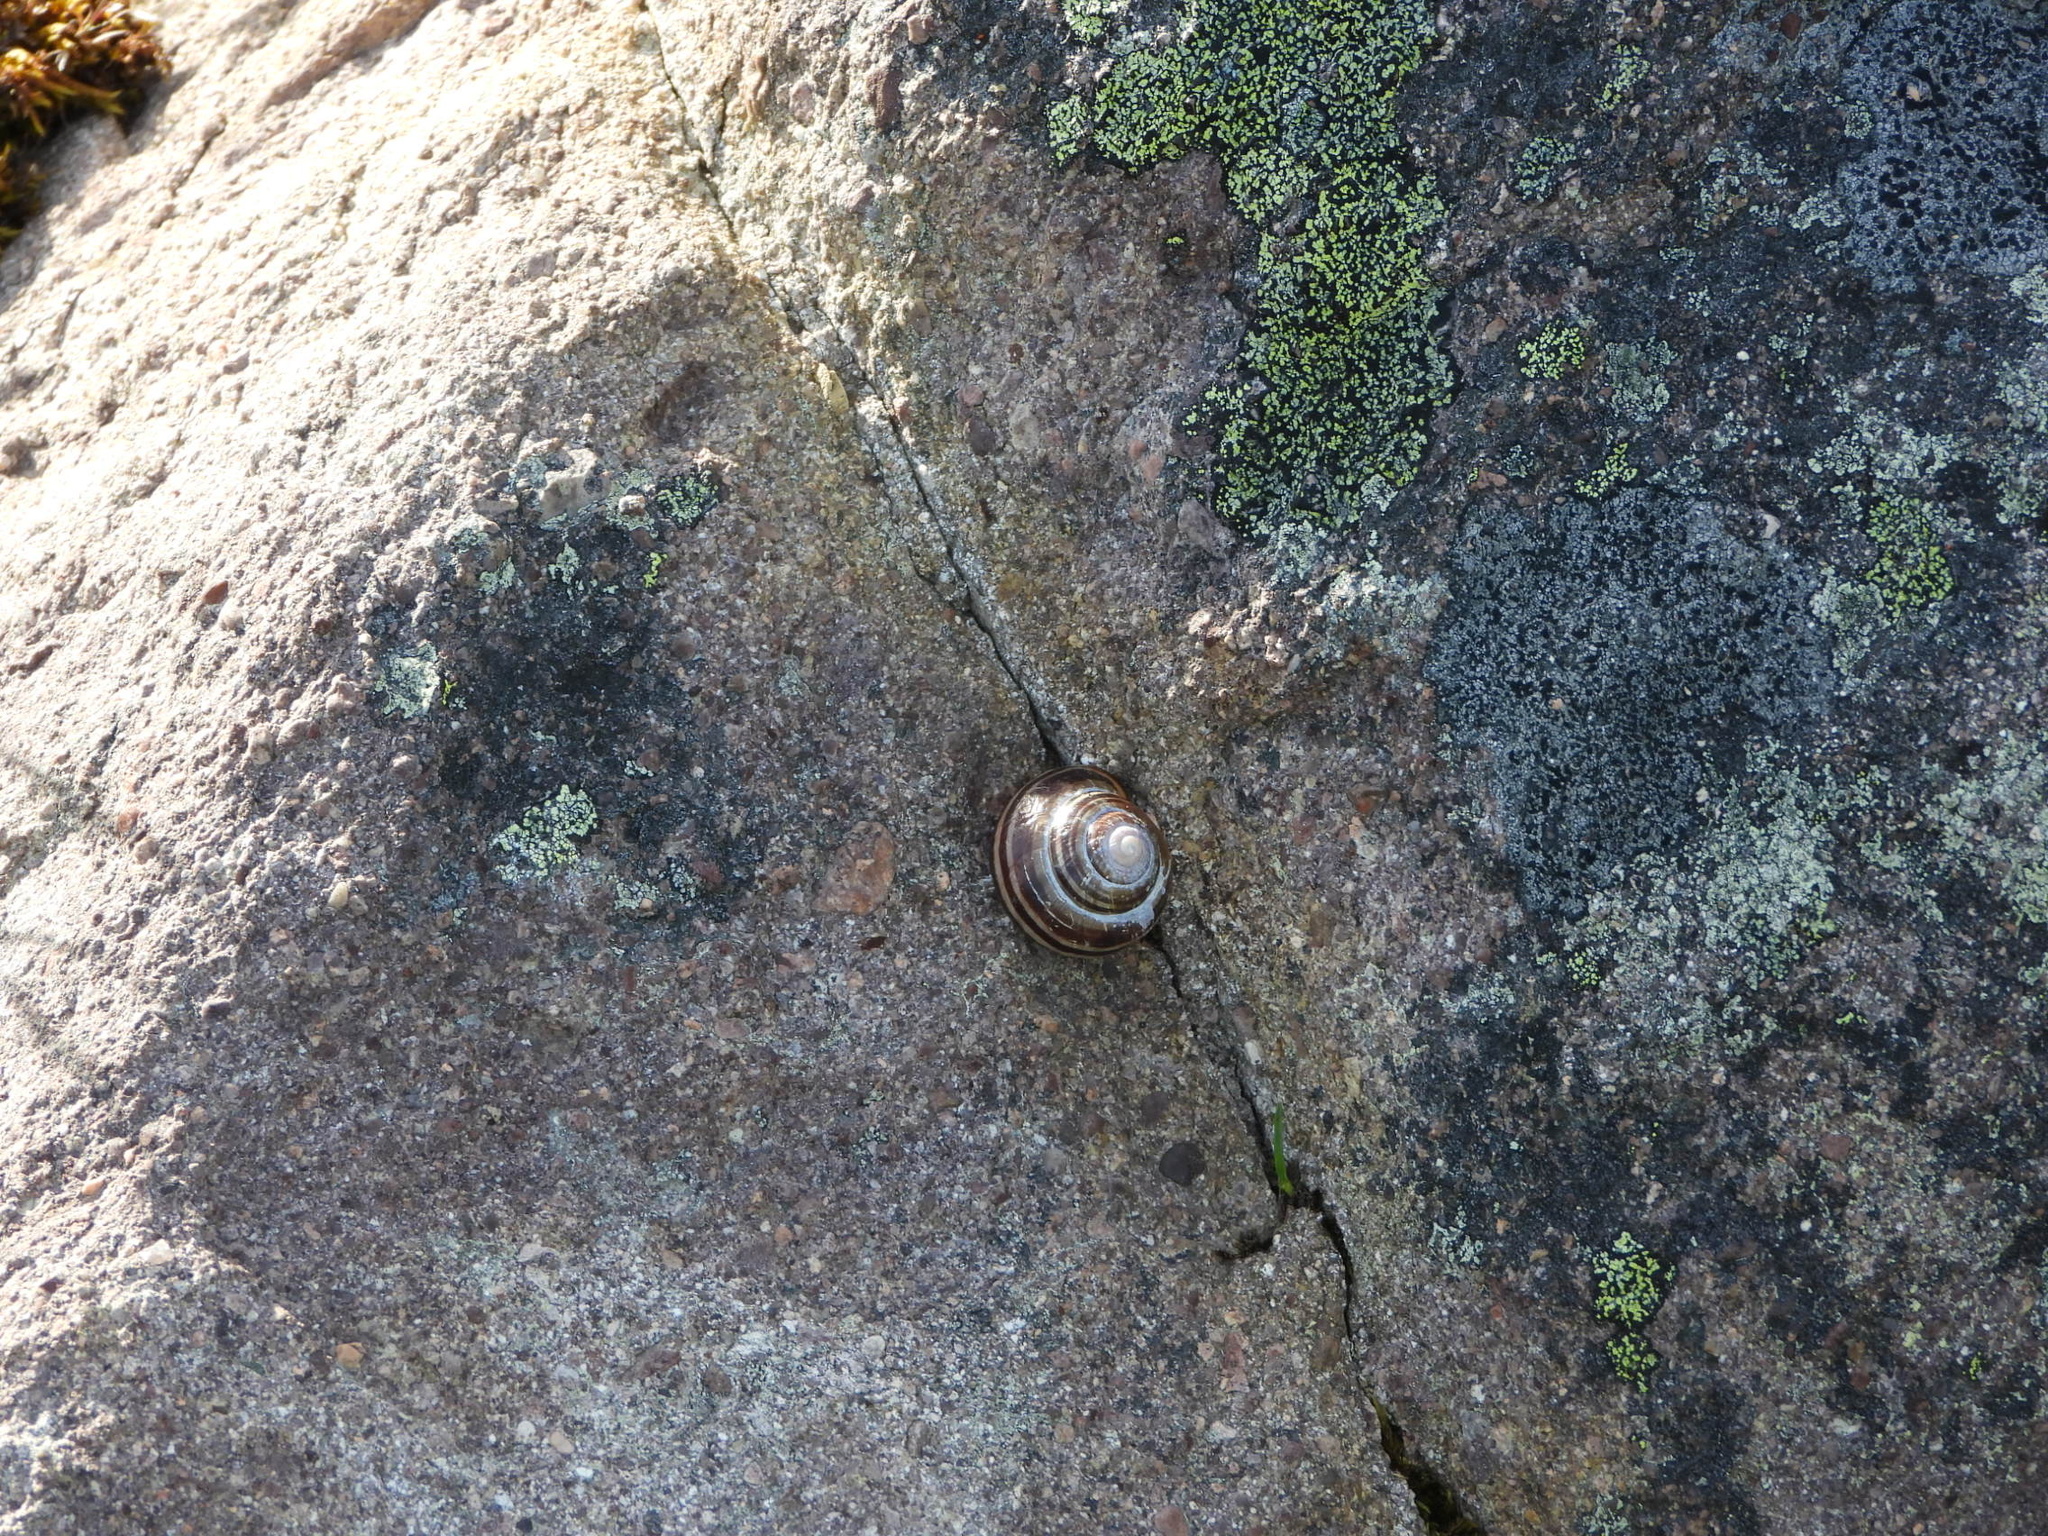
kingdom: Animalia
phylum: Mollusca
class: Gastropoda
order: Stylommatophora
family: Helicidae
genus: Cepaea
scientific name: Cepaea nemoralis
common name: Grovesnail
